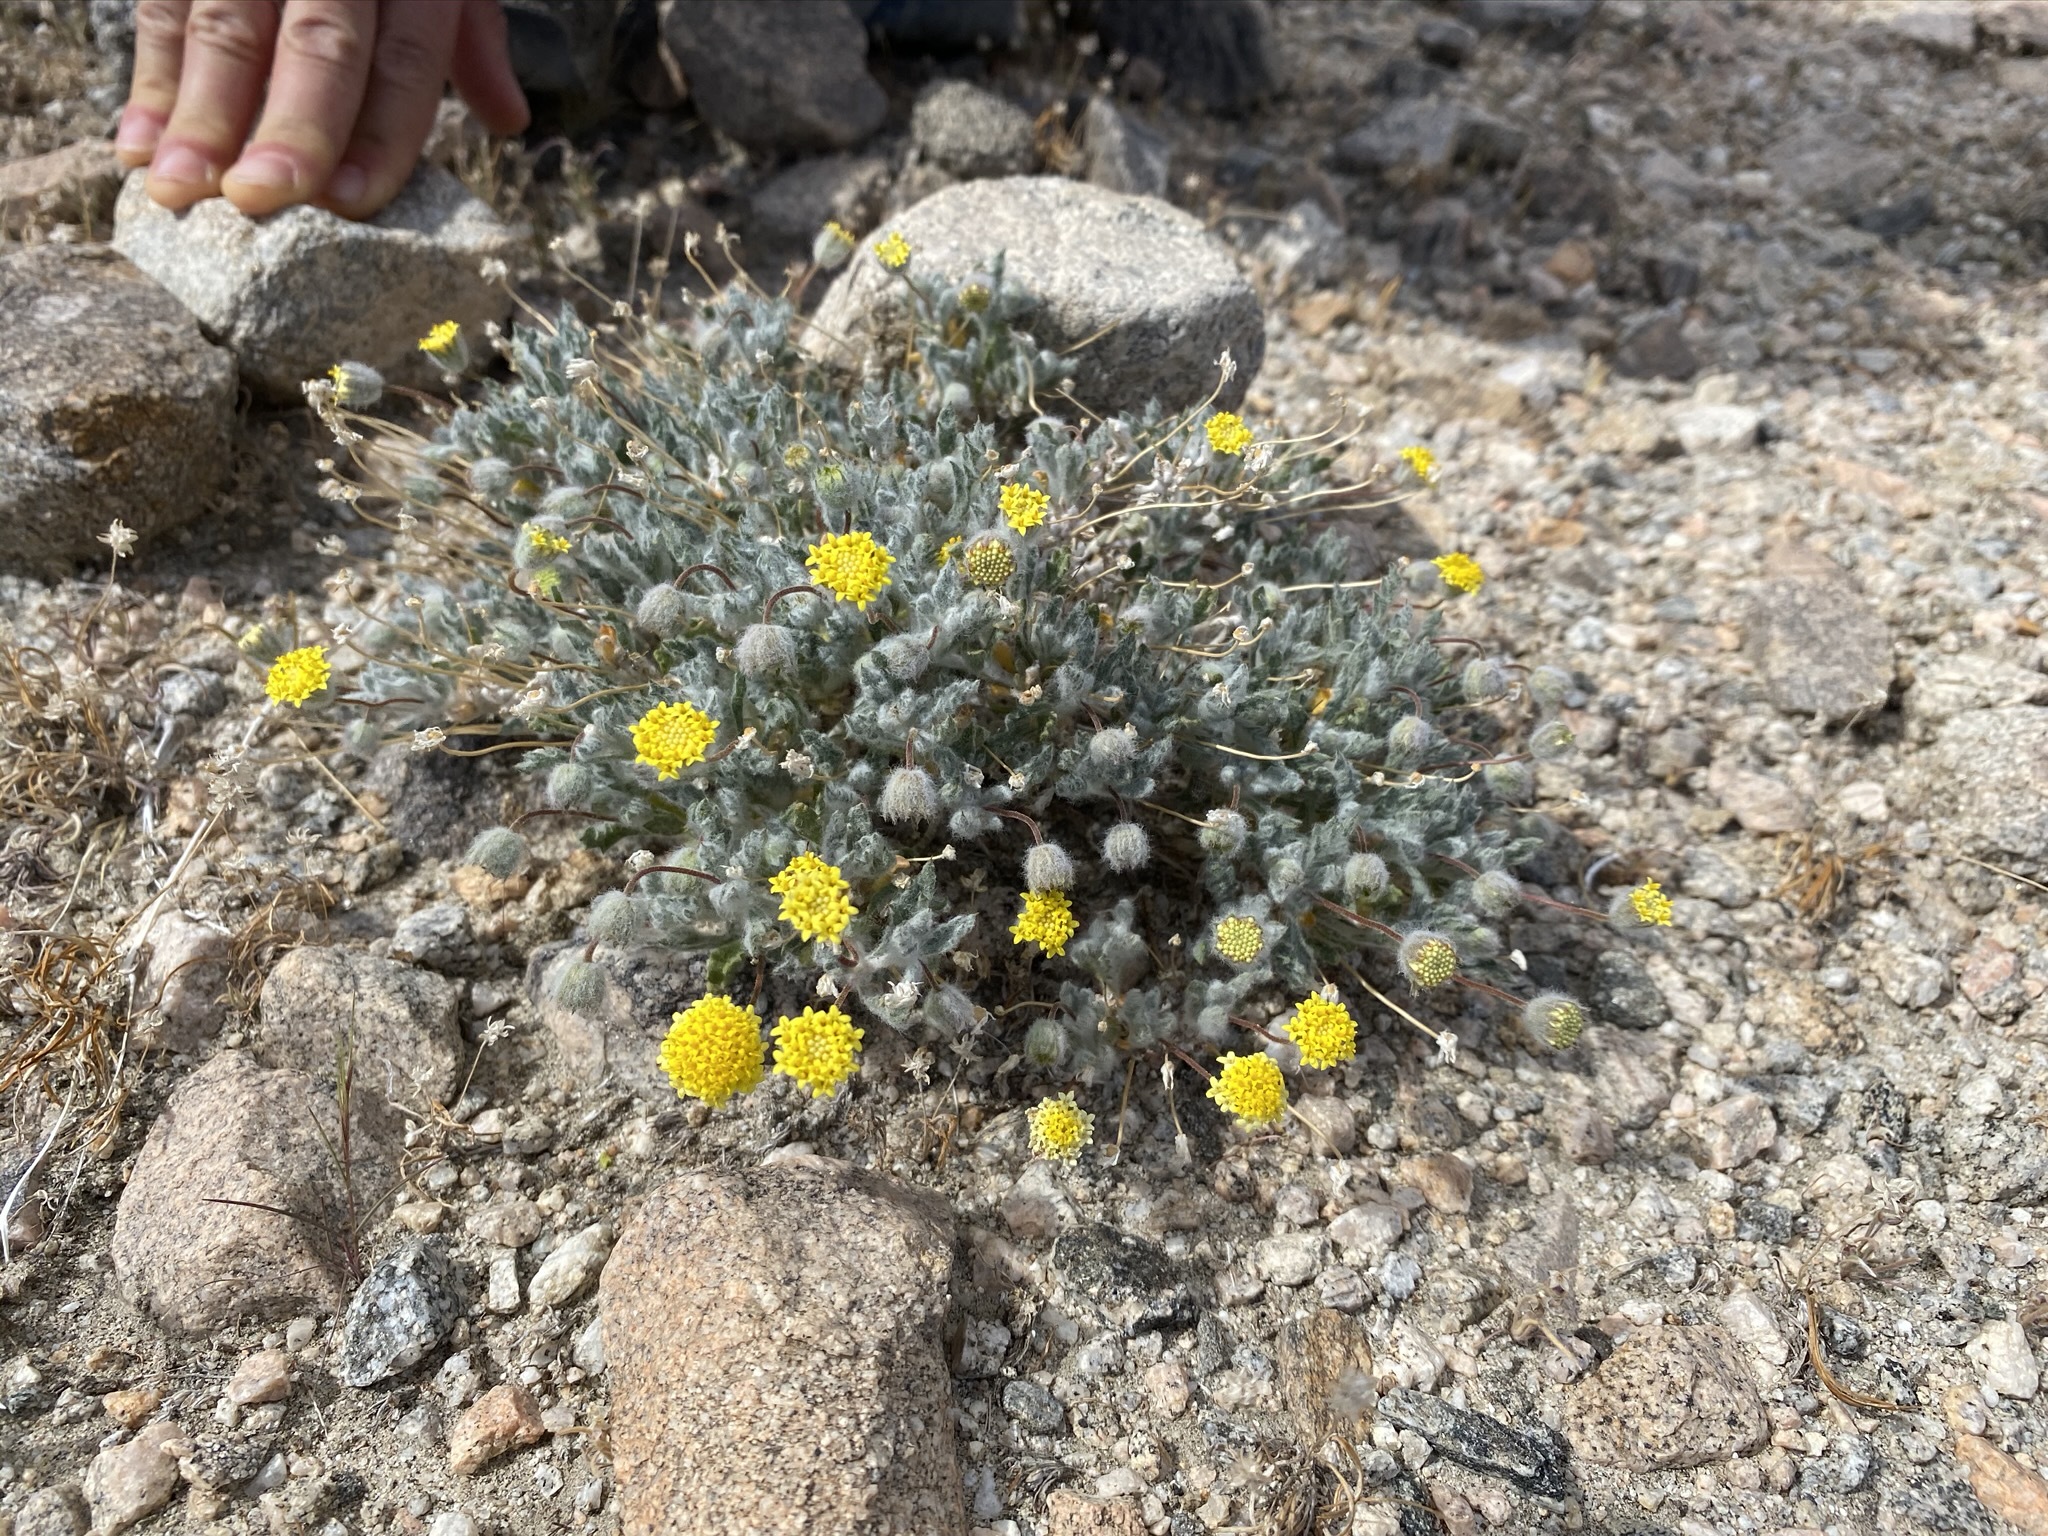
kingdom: Plantae
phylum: Tracheophyta
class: Magnoliopsida
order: Asterales
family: Asteraceae
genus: Trichoptilium
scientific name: Trichoptilium incisum
